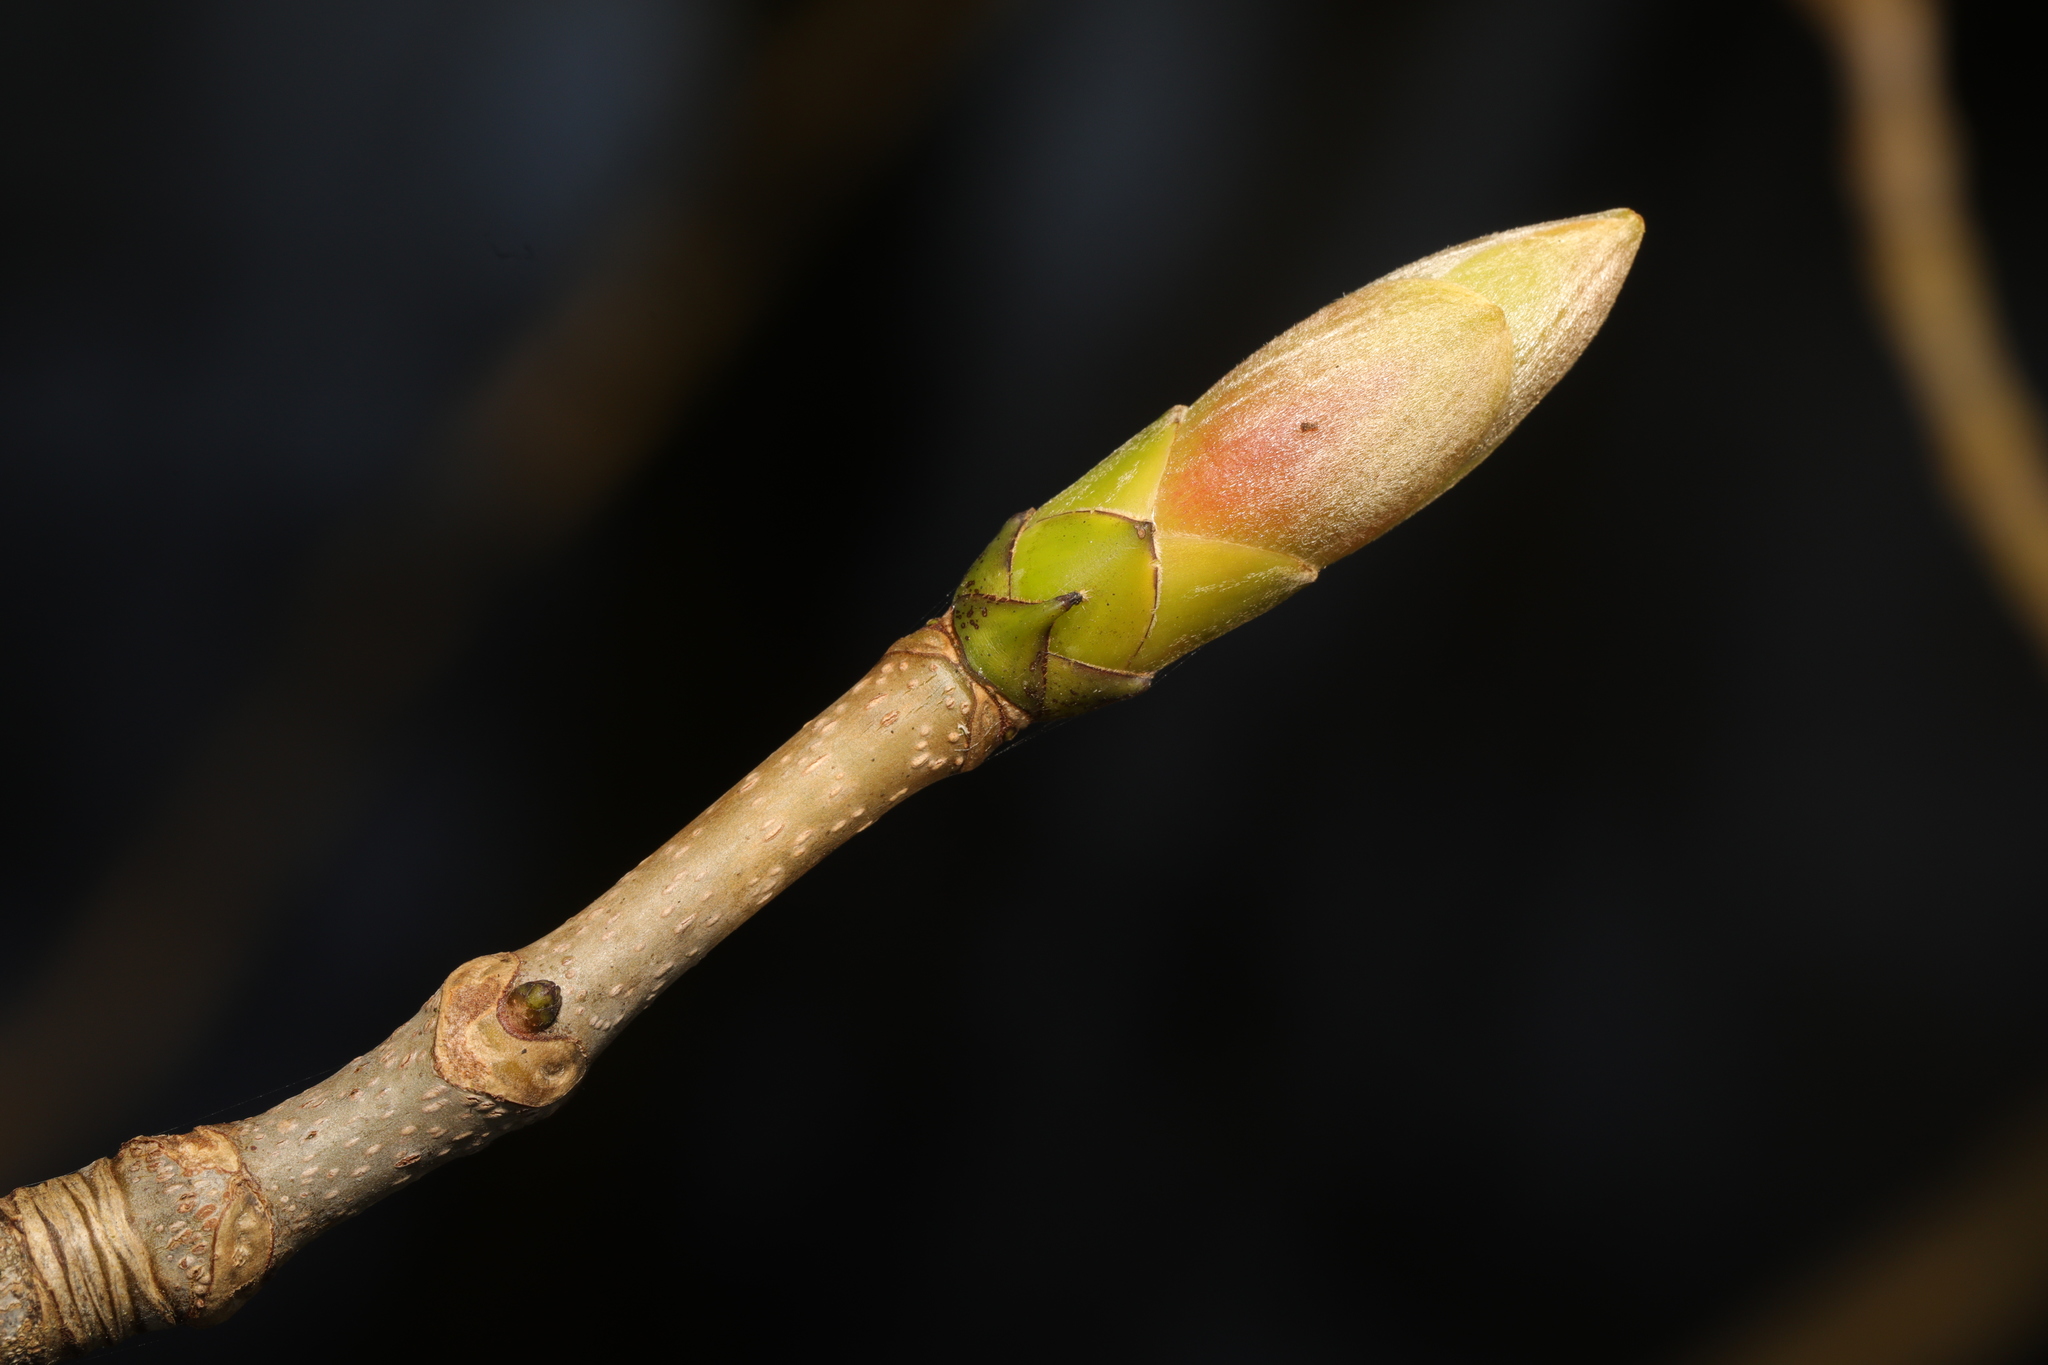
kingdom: Plantae
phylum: Tracheophyta
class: Magnoliopsida
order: Sapindales
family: Sapindaceae
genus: Acer
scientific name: Acer pseudoplatanus
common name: Sycamore
